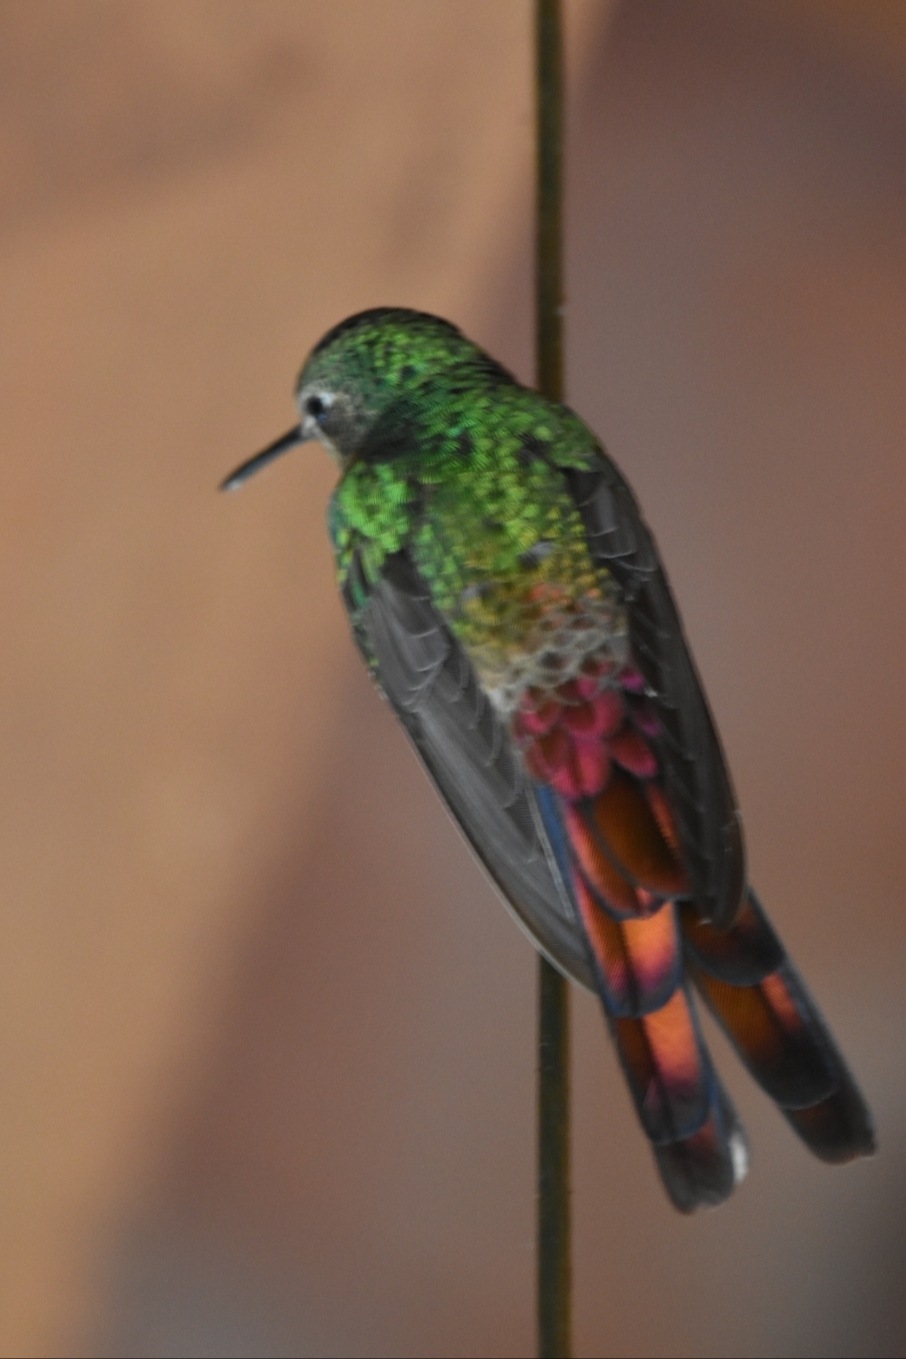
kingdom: Animalia
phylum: Chordata
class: Aves
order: Apodiformes
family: Trochilidae
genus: Sappho
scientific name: Sappho sparganurus
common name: Red-tailed comet
